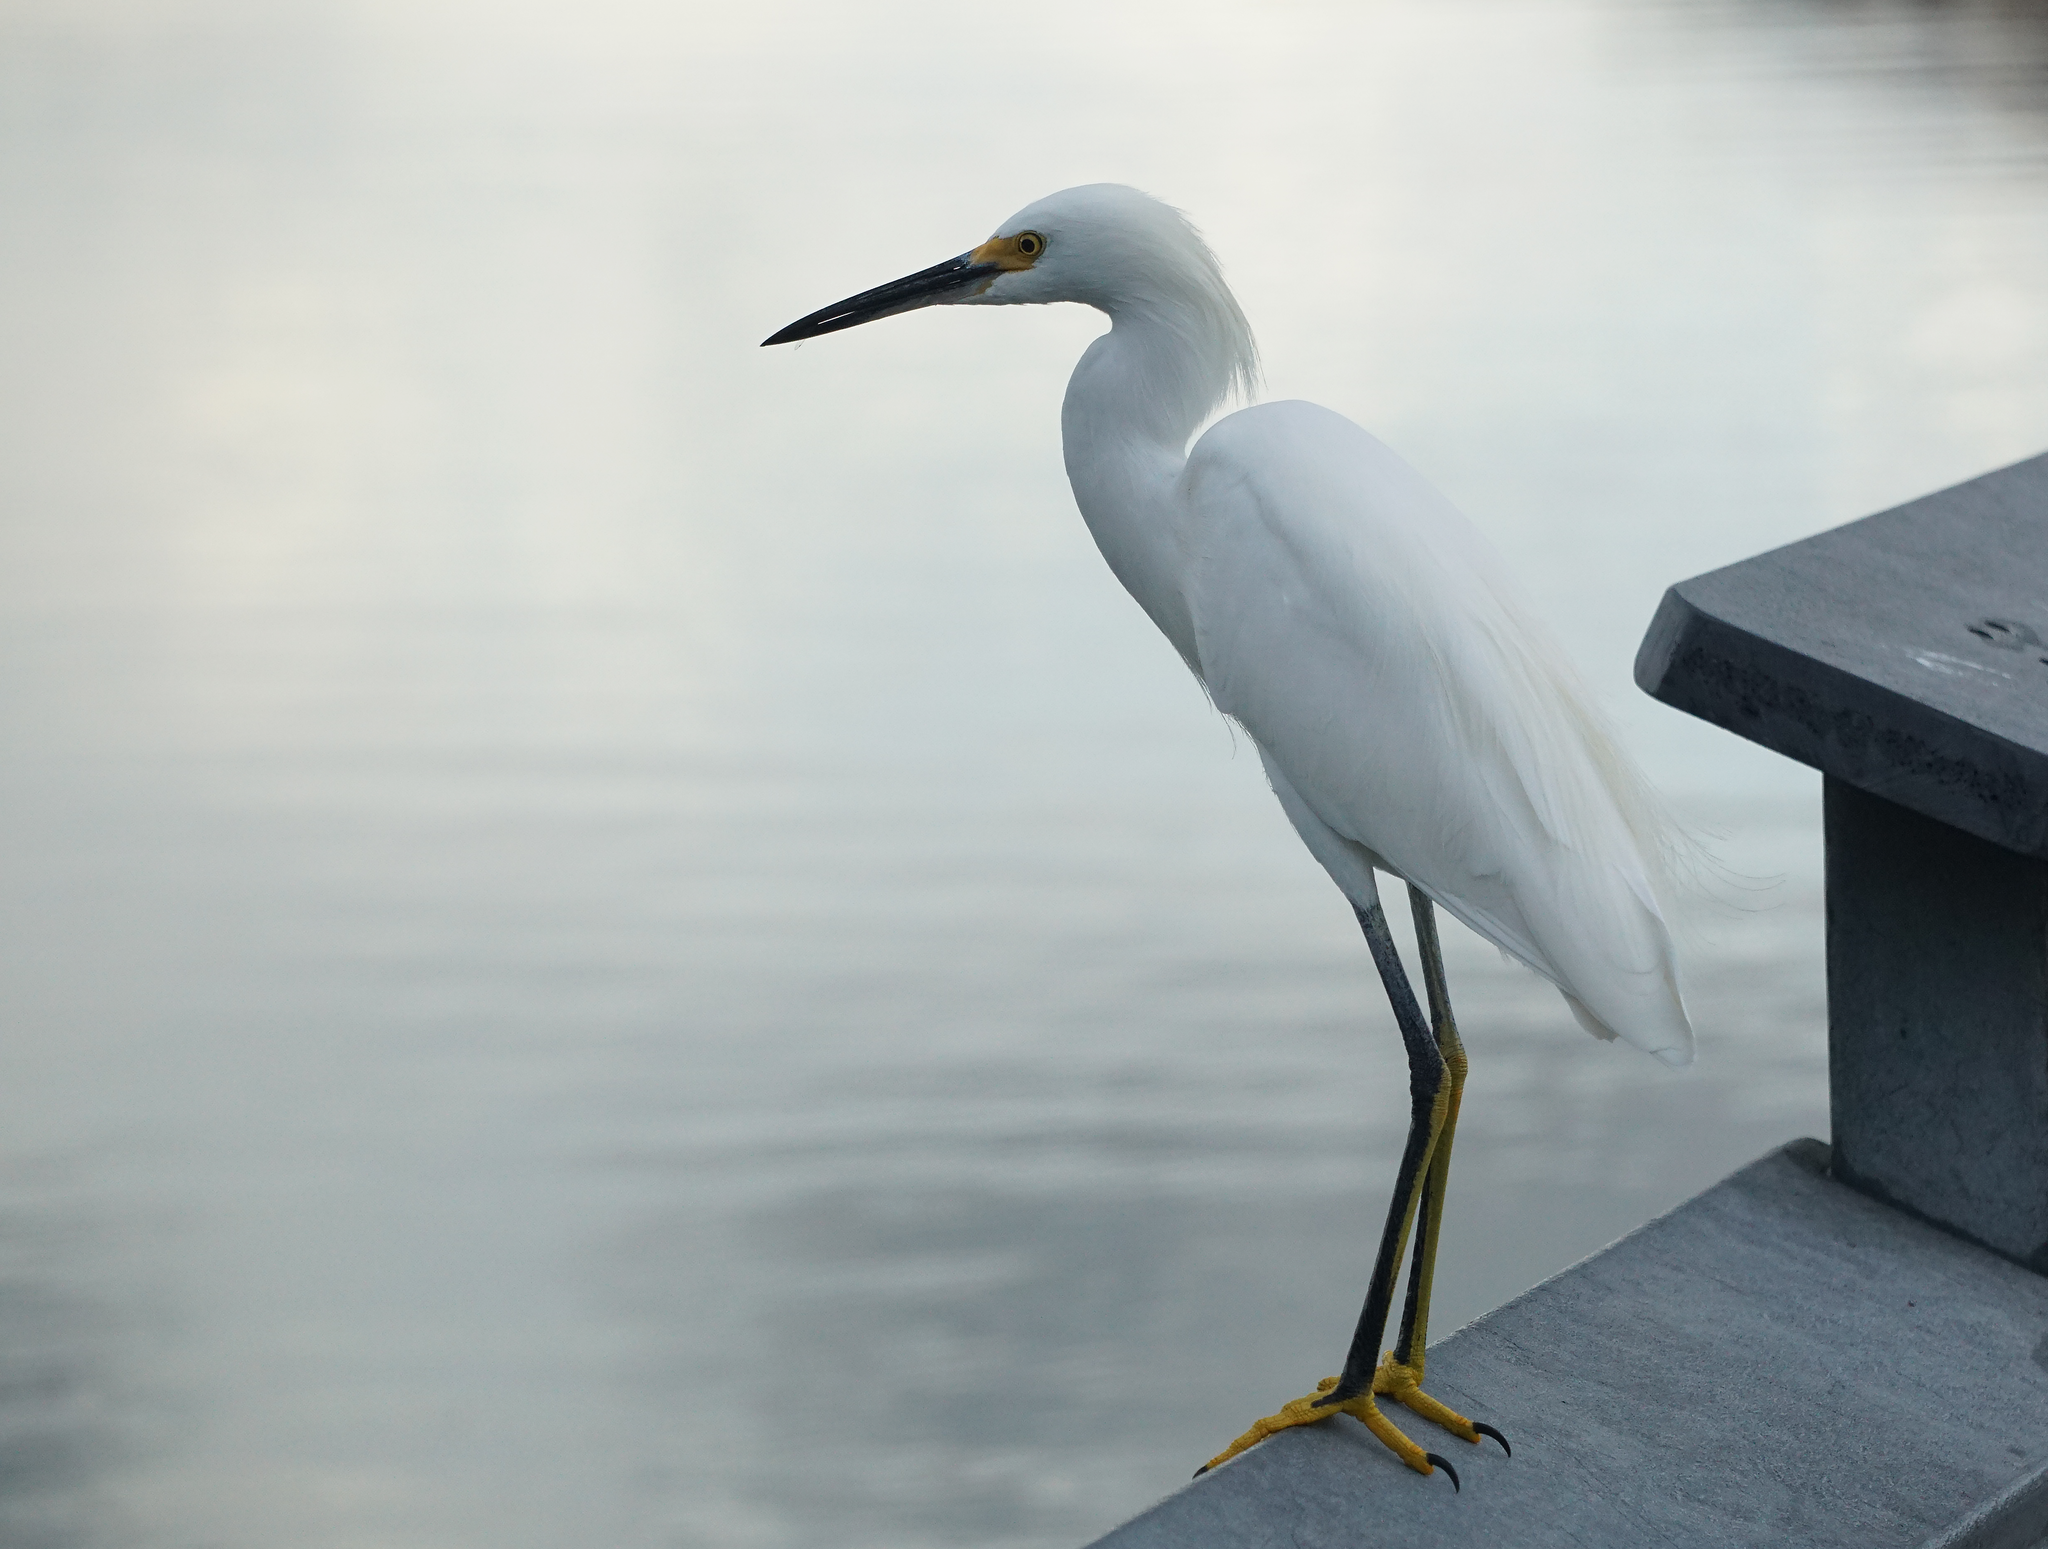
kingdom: Animalia
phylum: Chordata
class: Aves
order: Pelecaniformes
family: Ardeidae
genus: Egretta
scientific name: Egretta thula
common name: Snowy egret
